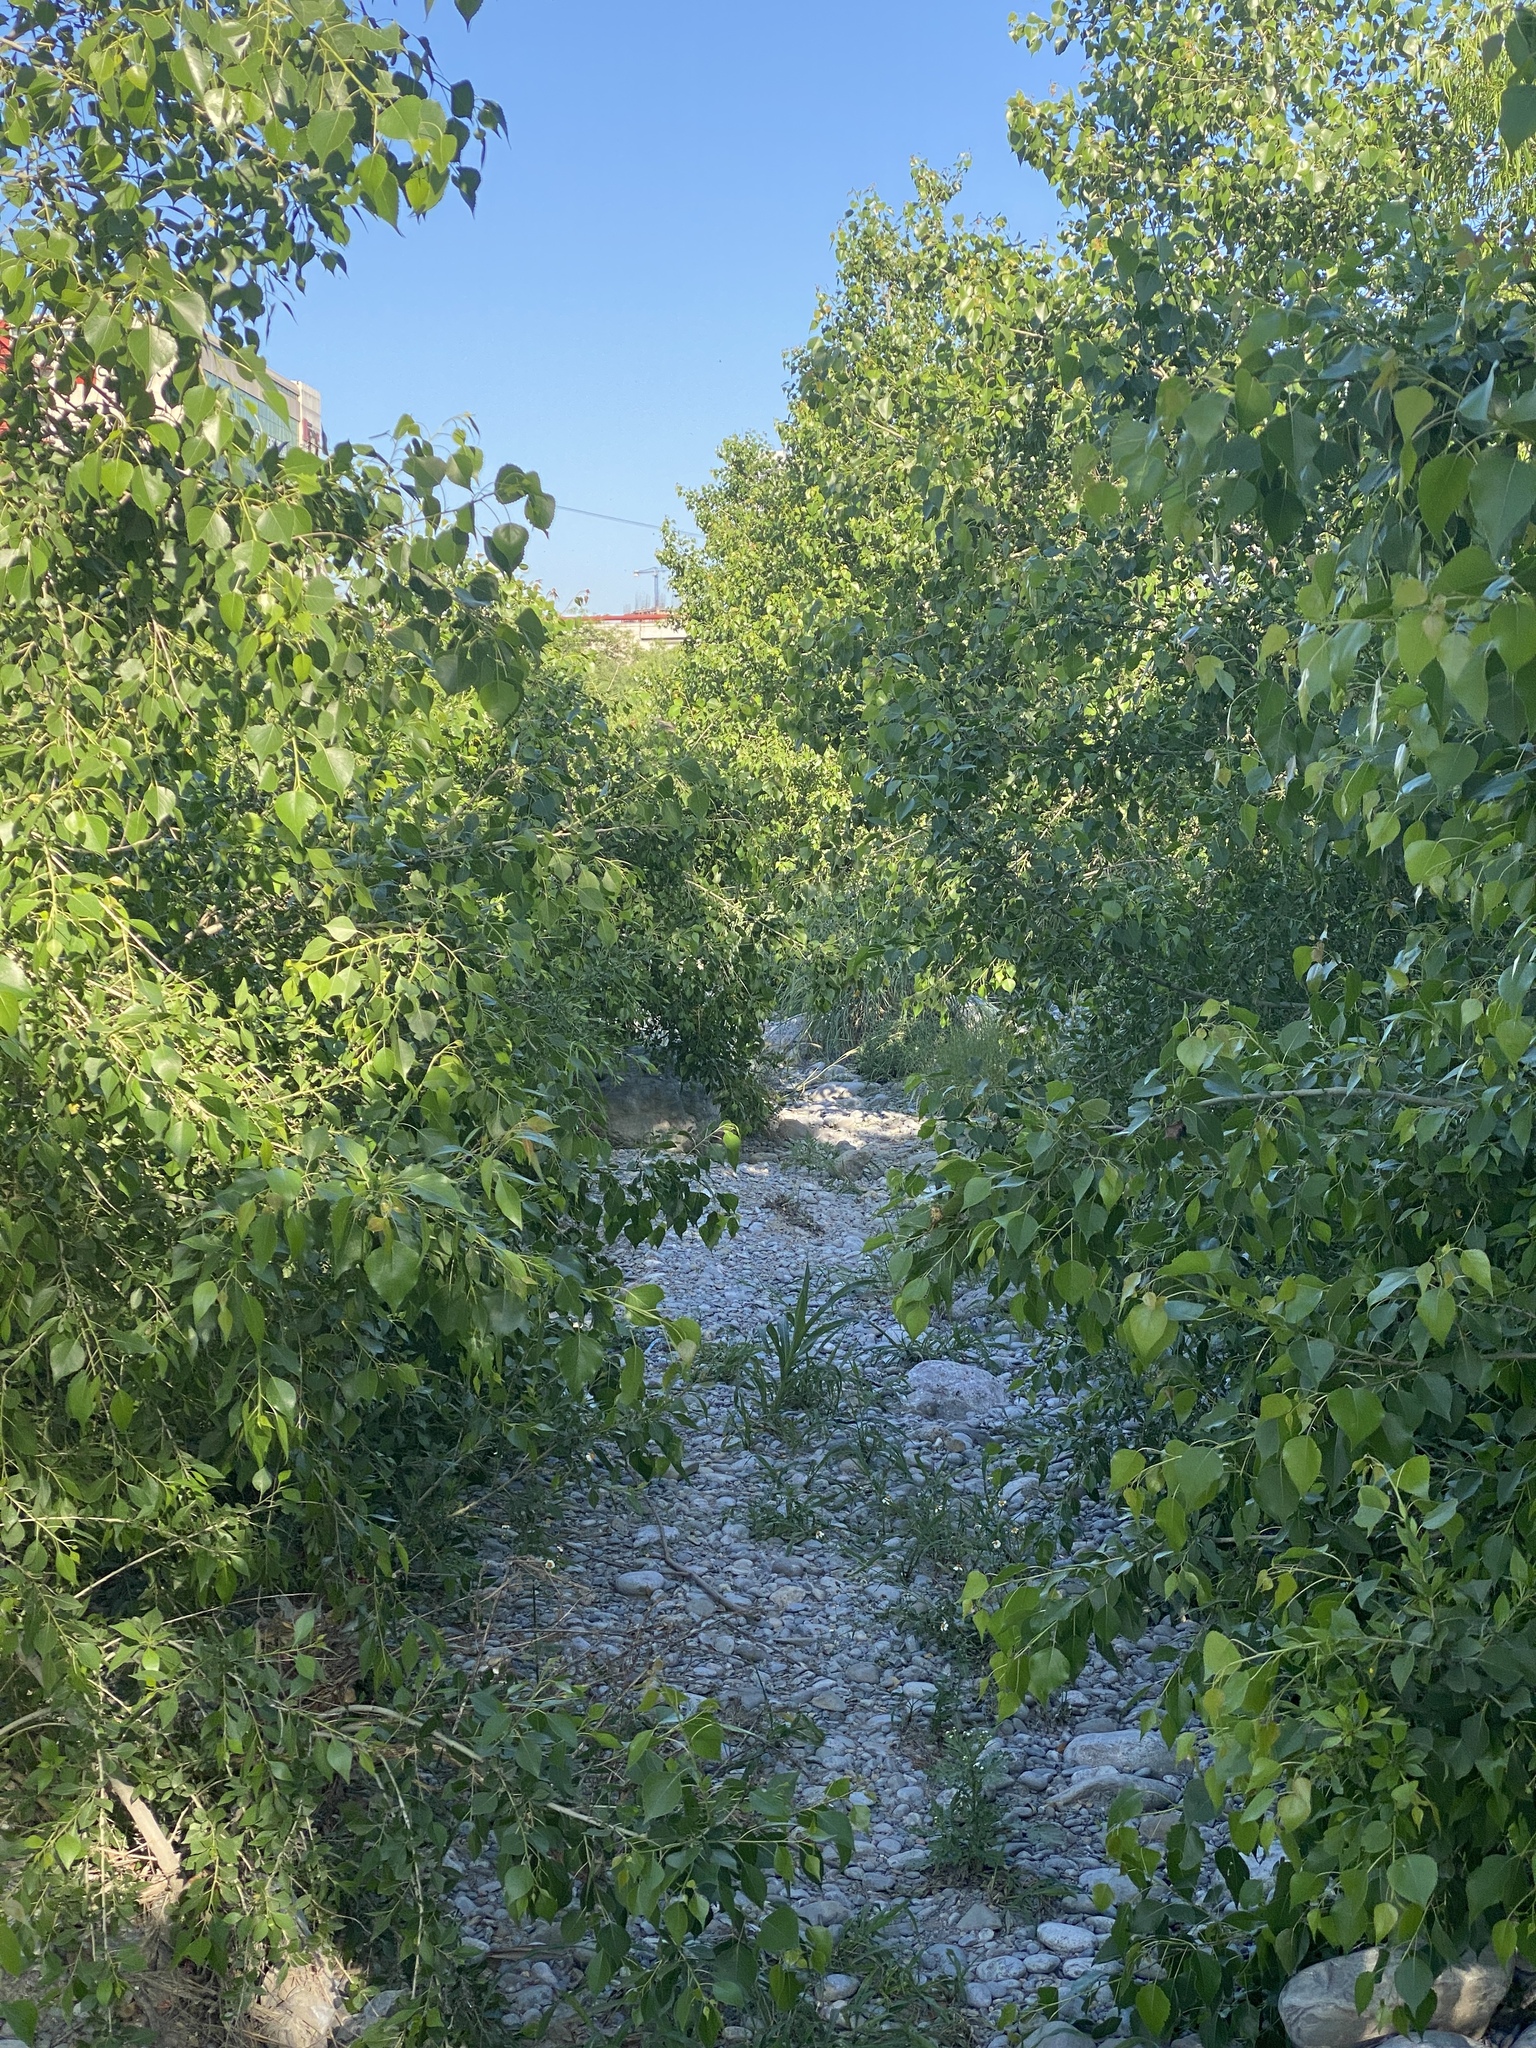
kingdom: Plantae
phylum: Tracheophyta
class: Magnoliopsida
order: Malpighiales
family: Salicaceae
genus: Populus
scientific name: Populus deltoides
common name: Eastern cottonwood
